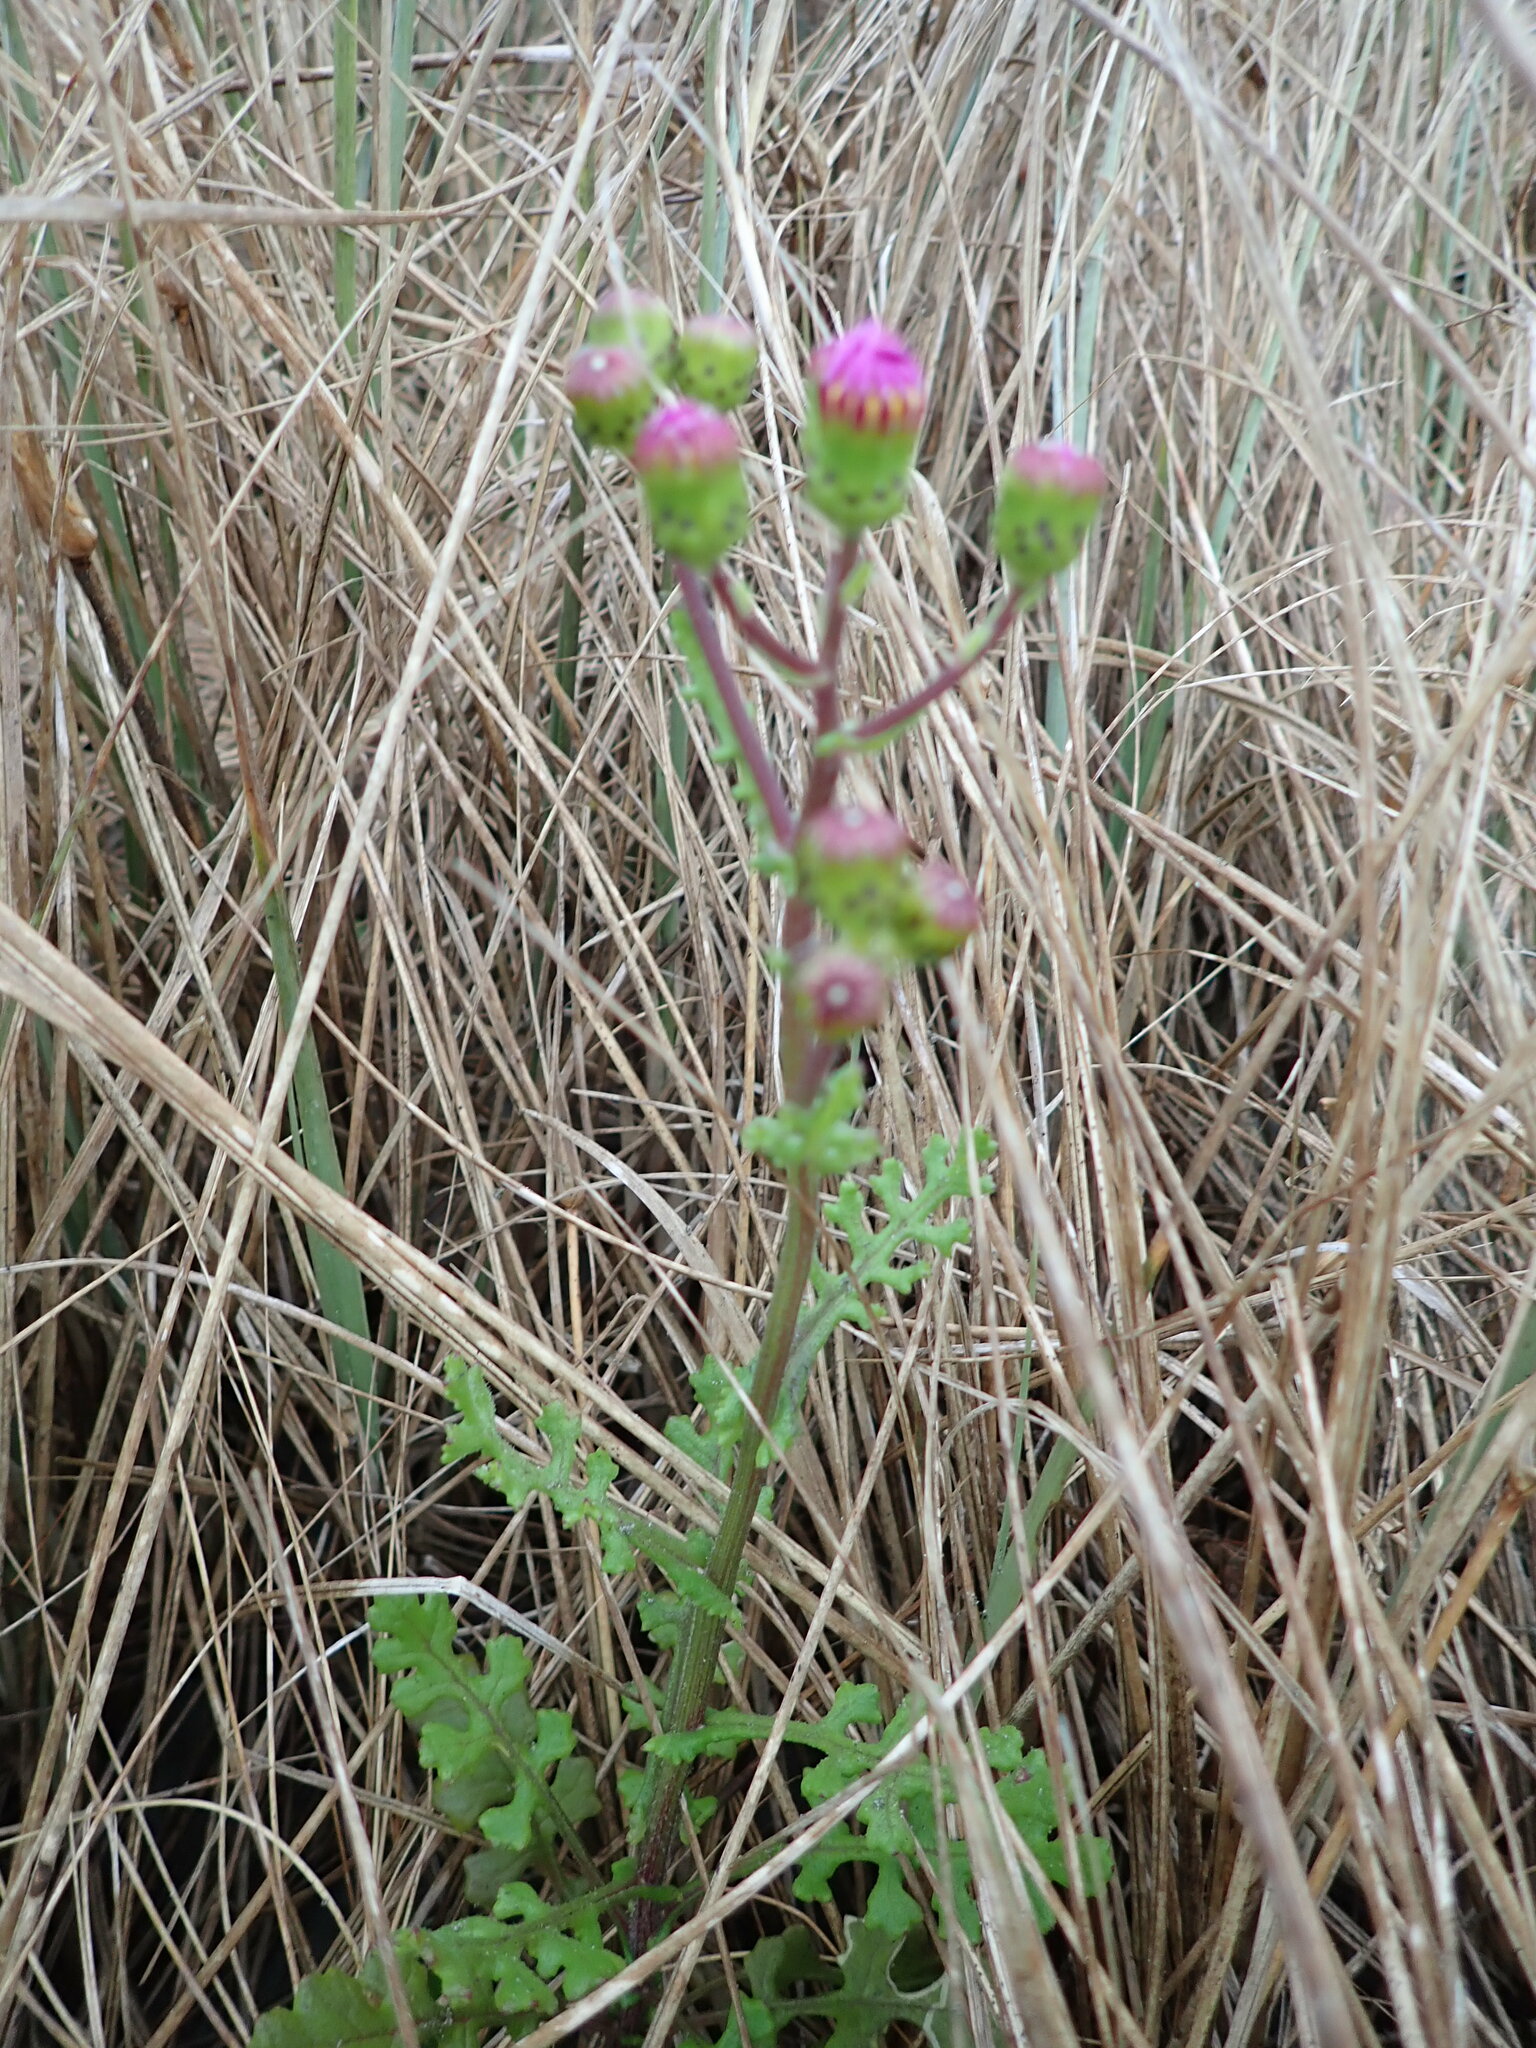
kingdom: Plantae
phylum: Tracheophyta
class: Magnoliopsida
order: Asterales
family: Asteraceae
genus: Senecio
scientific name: Senecio elegans
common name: Purple groundsel
